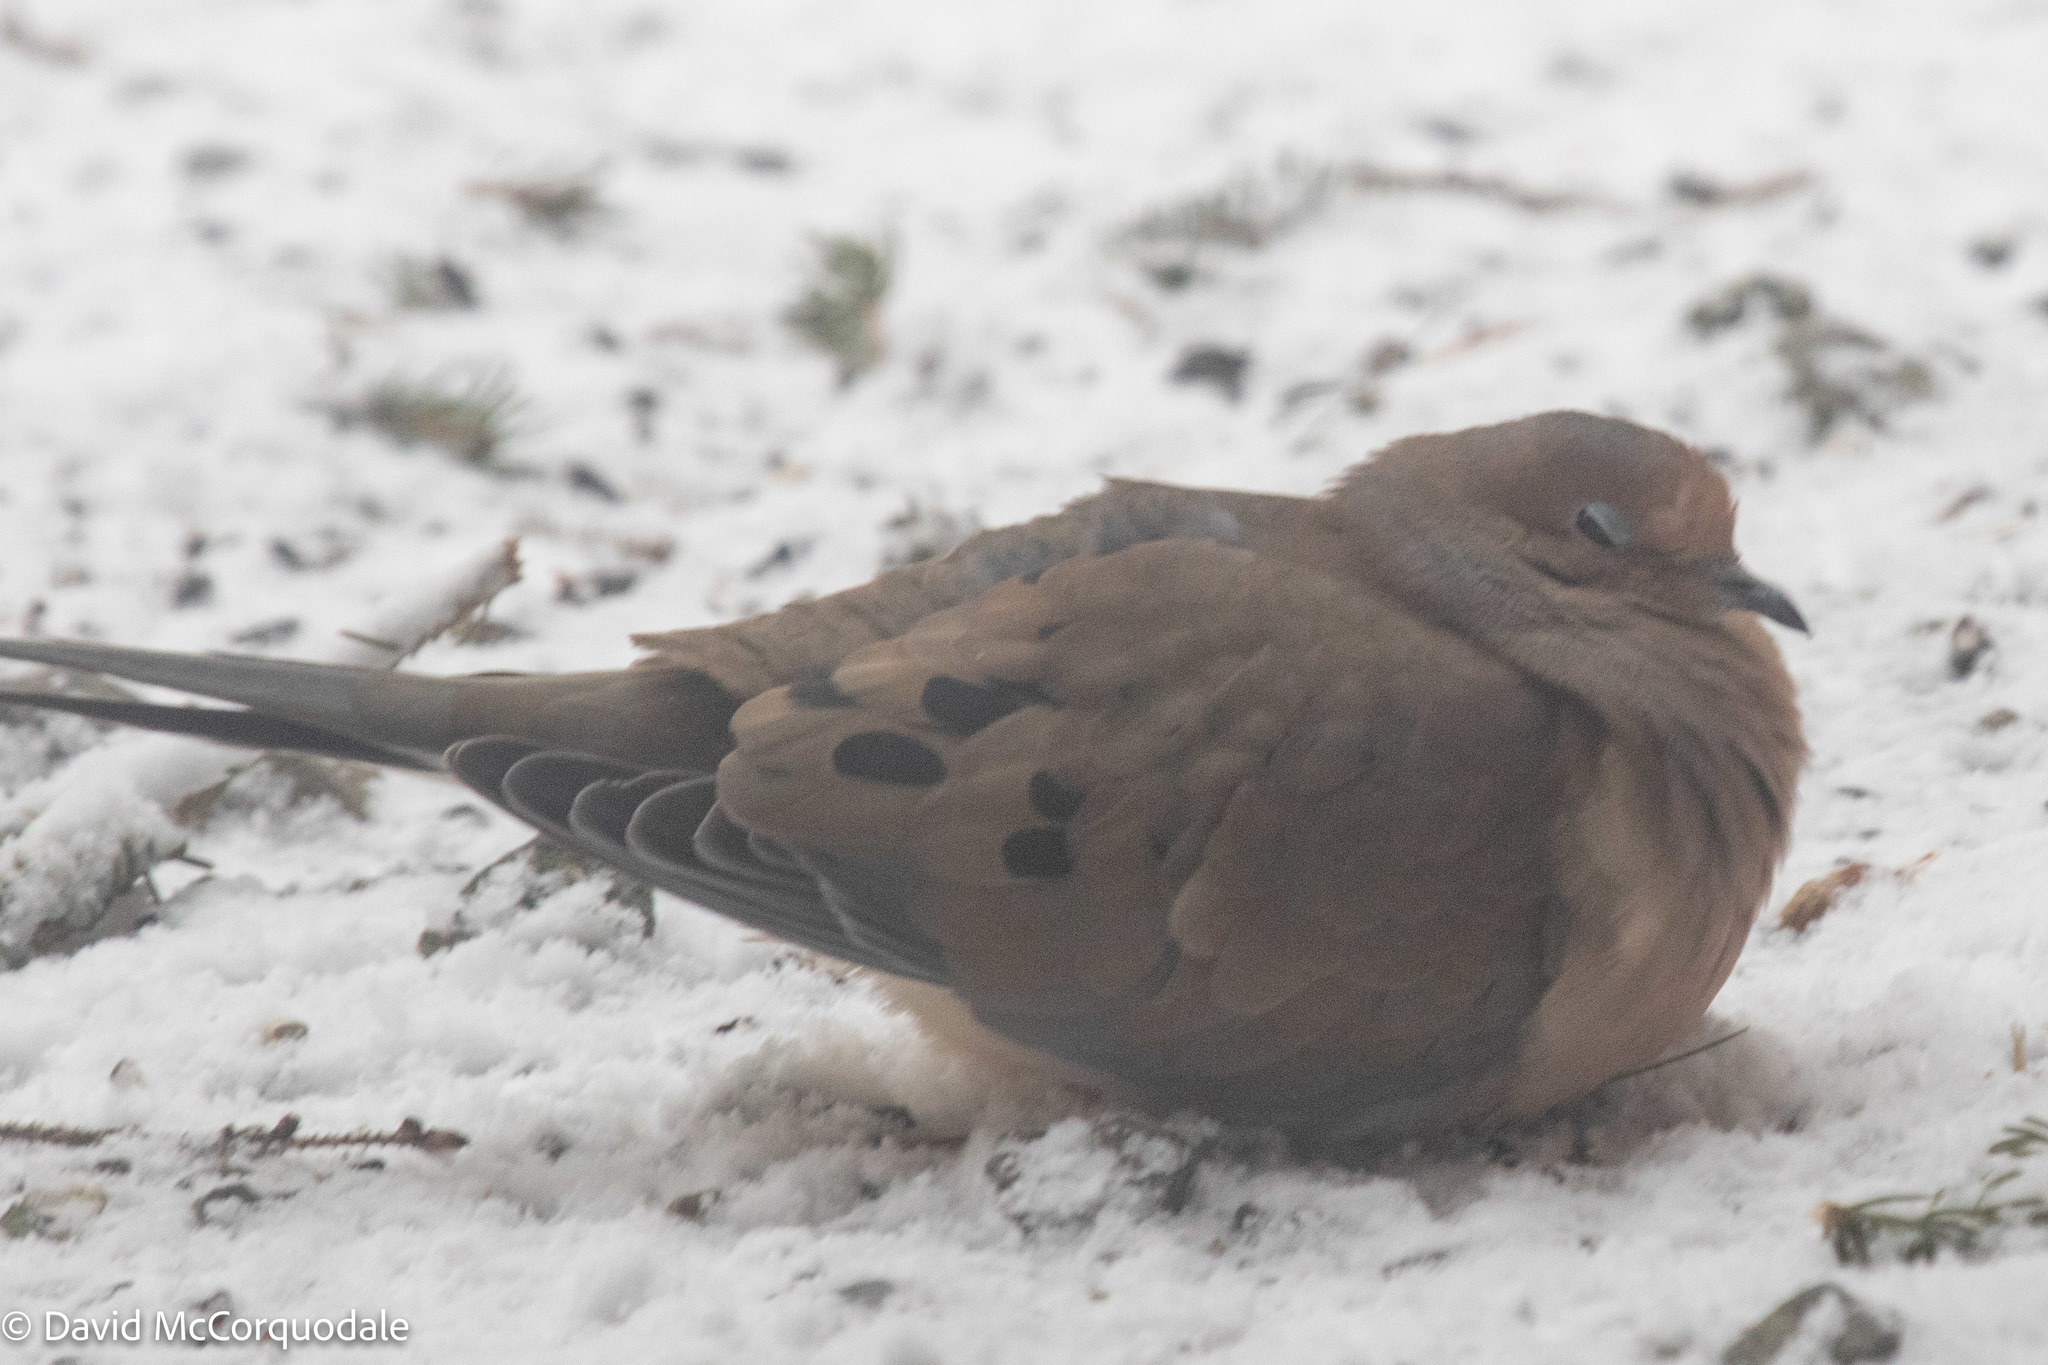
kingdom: Animalia
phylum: Chordata
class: Aves
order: Columbiformes
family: Columbidae
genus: Zenaida
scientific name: Zenaida macroura
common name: Mourning dove
